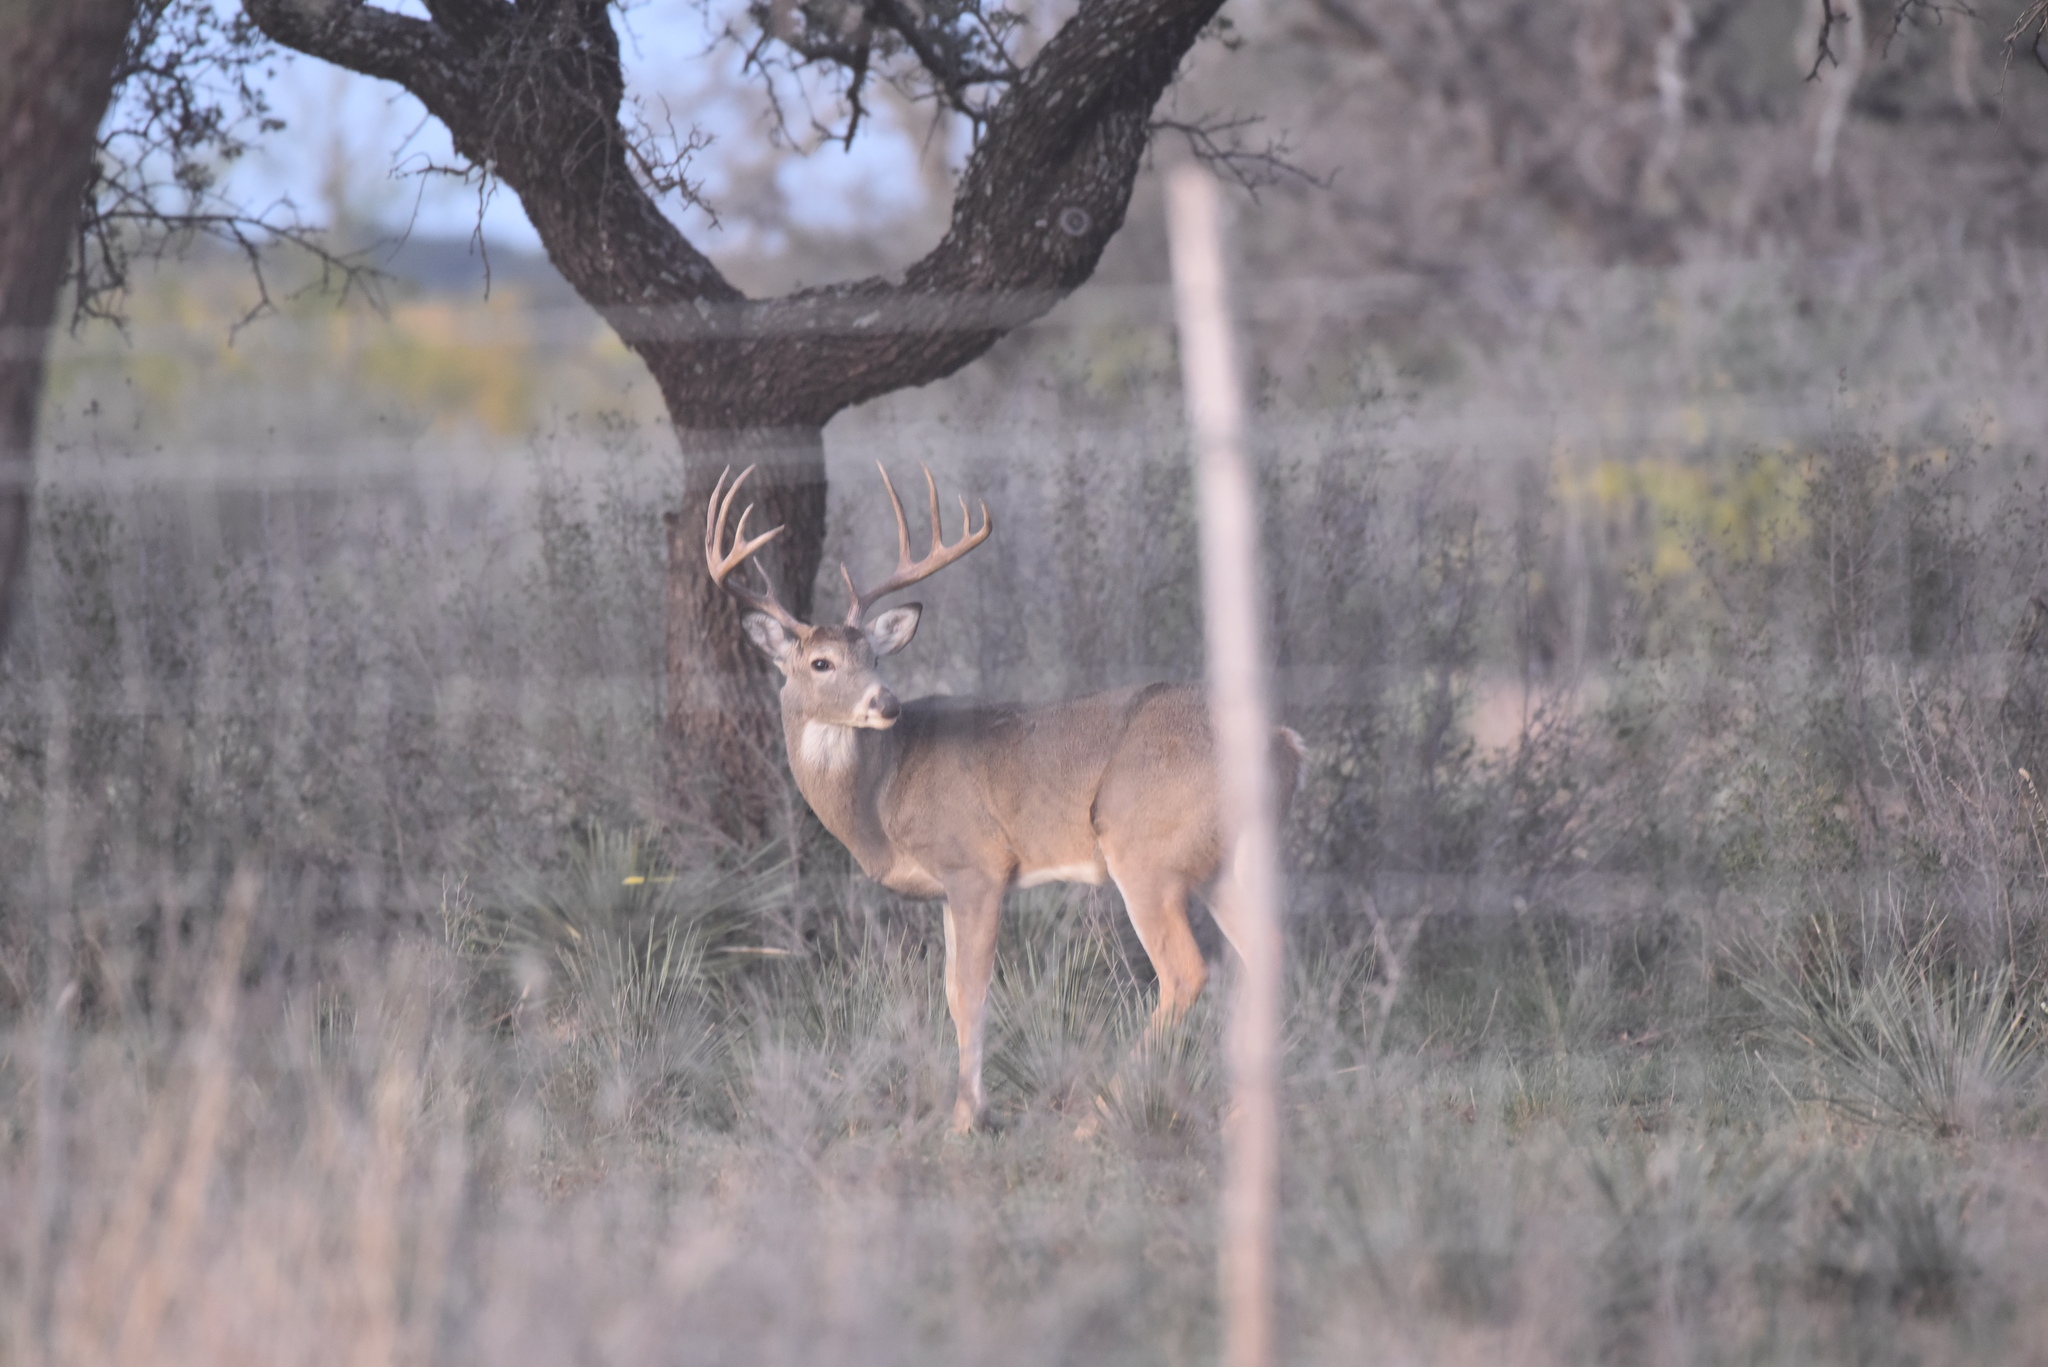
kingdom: Animalia
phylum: Chordata
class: Mammalia
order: Artiodactyla
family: Cervidae
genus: Odocoileus
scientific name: Odocoileus virginianus
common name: White-tailed deer
